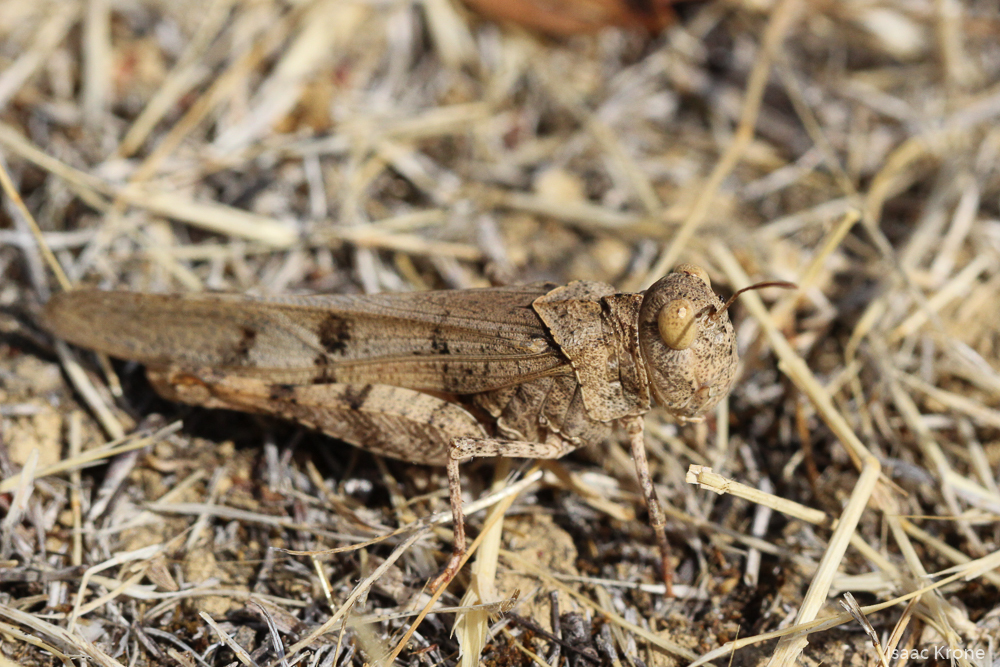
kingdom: Animalia
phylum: Arthropoda
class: Insecta
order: Orthoptera
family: Acrididae
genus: Dissosteira
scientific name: Dissosteira pictipennis
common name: California rose-winged grasshopper
